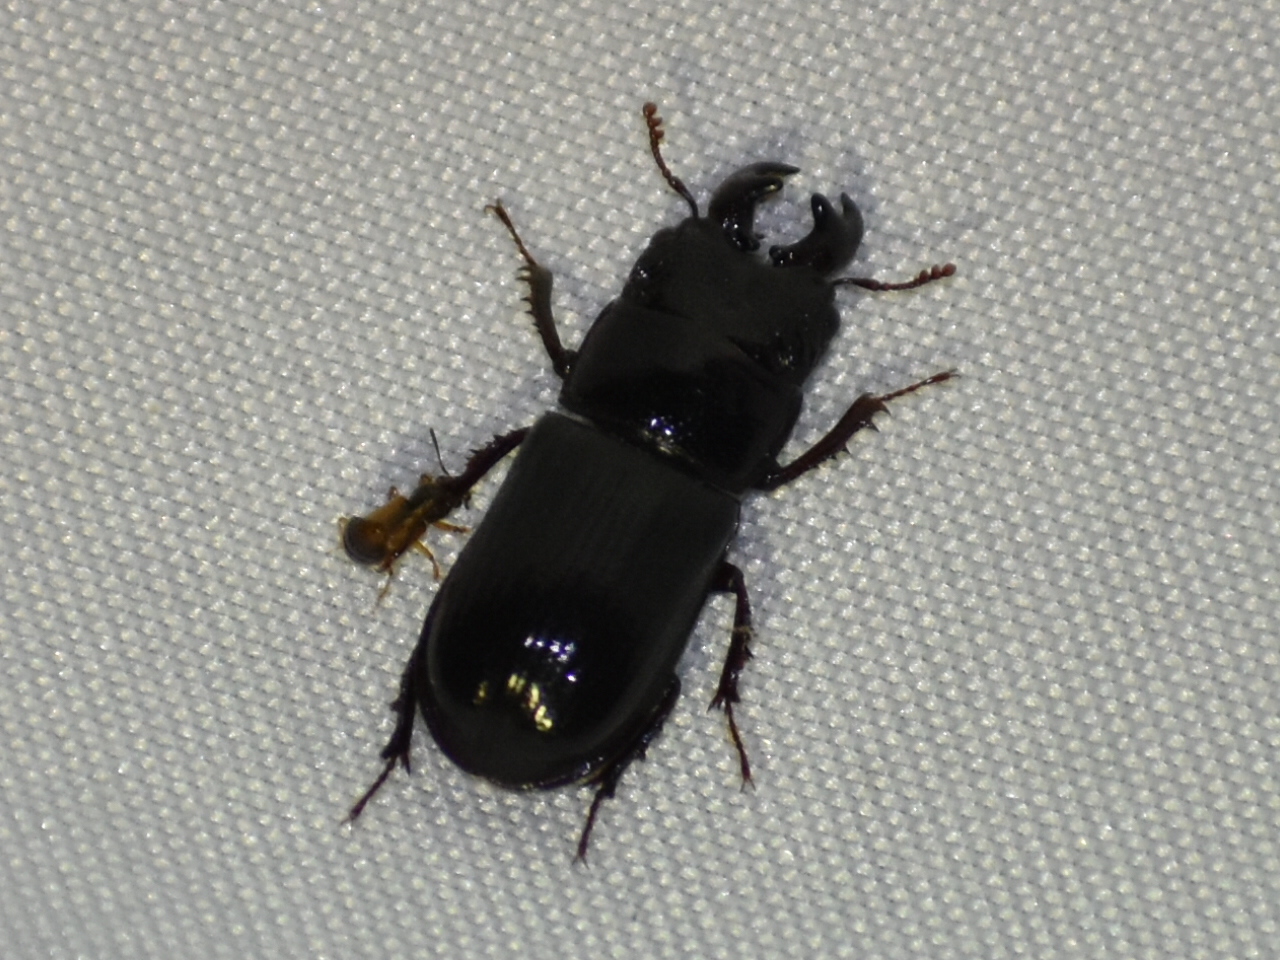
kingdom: Animalia
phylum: Arthropoda
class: Insecta
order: Coleoptera
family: Lucanidae
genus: Ceruchus
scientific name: Ceruchus piceus
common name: Red-rot decay stag beetle
